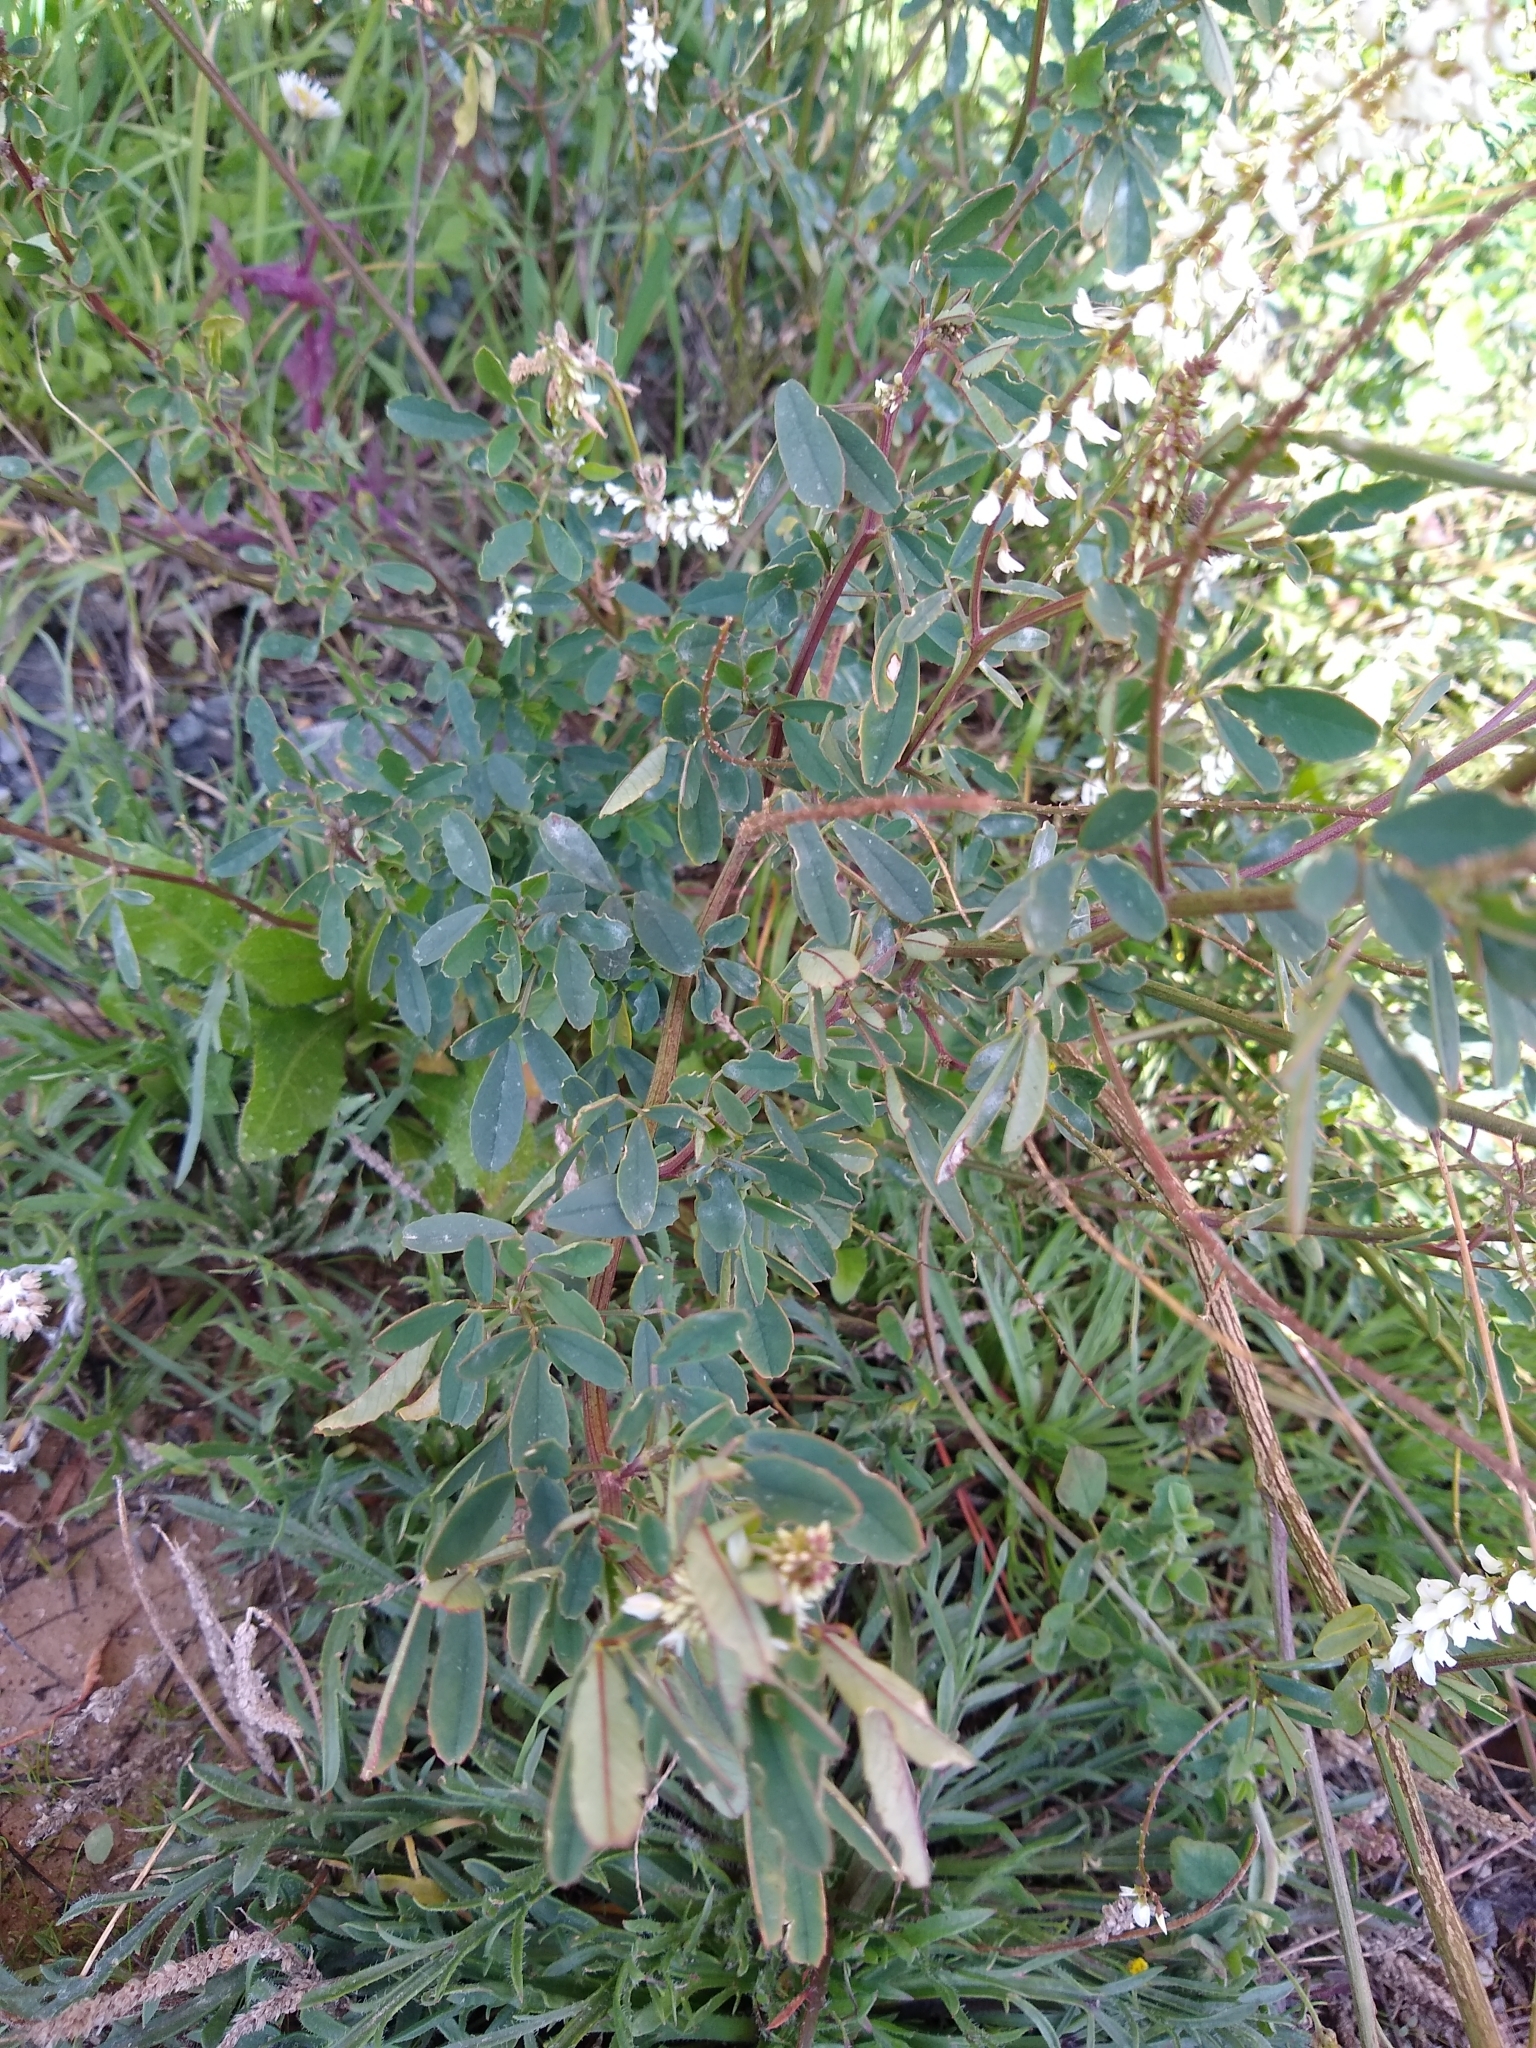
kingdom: Plantae
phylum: Tracheophyta
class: Magnoliopsida
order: Fabales
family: Fabaceae
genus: Melilotus
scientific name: Melilotus albus
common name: White melilot
